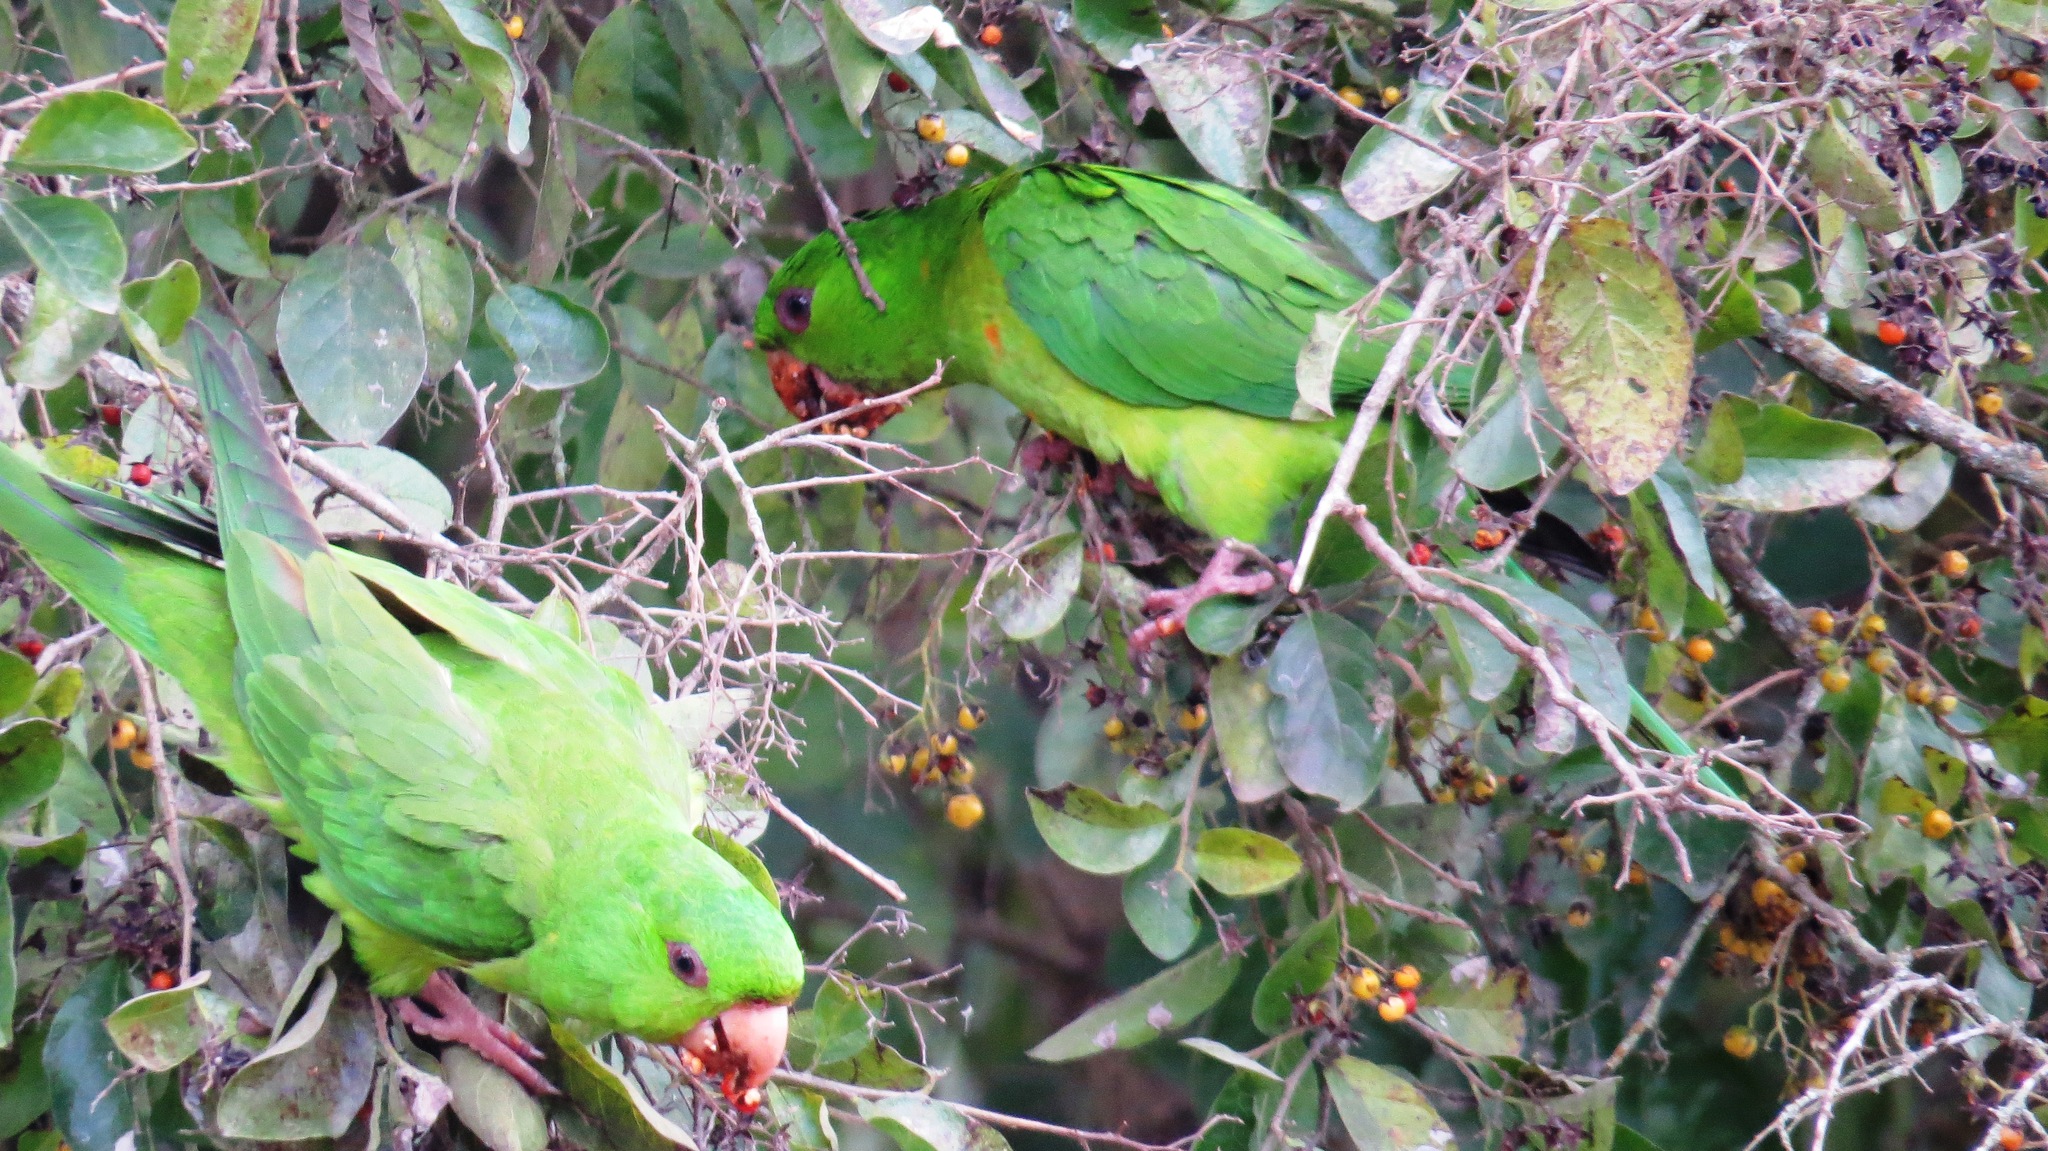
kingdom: Animalia
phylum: Chordata
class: Aves
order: Psittaciformes
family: Psittacidae
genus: Aratinga
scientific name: Aratinga holochlora
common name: Green parakeet
